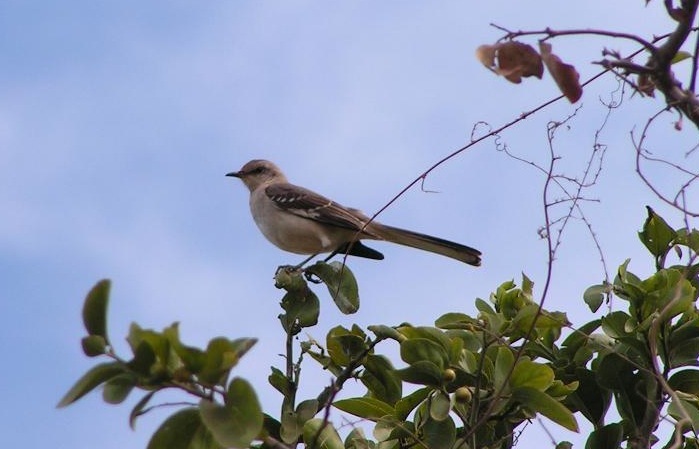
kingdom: Animalia
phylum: Chordata
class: Aves
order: Passeriformes
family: Mimidae
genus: Mimus
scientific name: Mimus polyglottos
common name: Northern mockingbird
